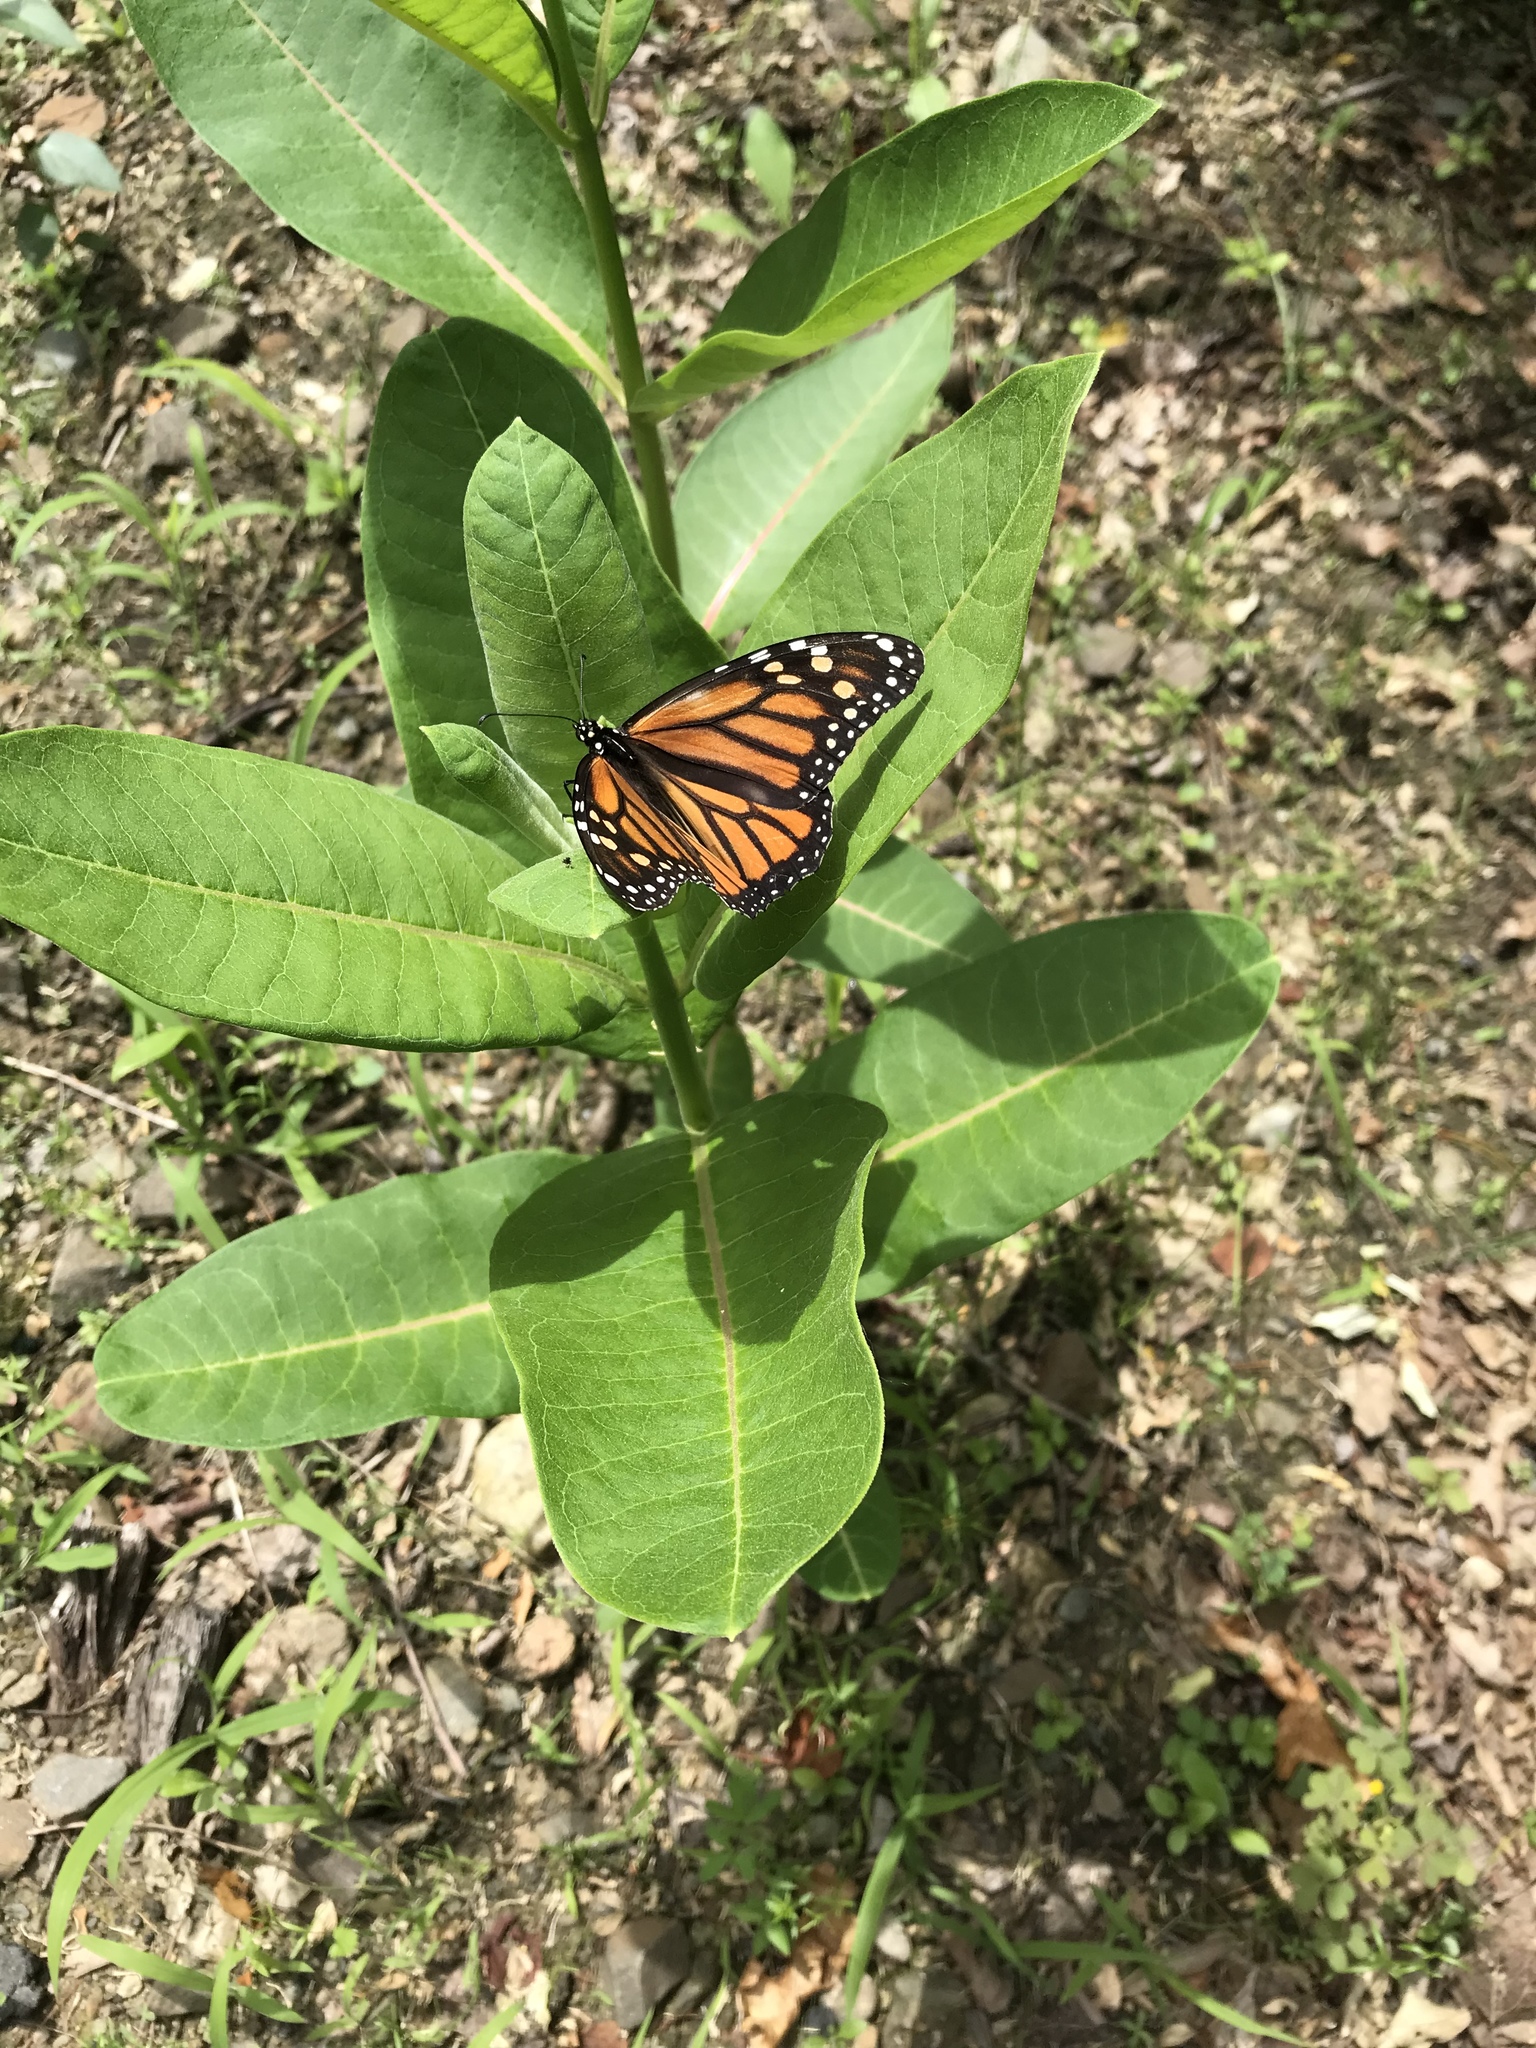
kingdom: Animalia
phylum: Arthropoda
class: Insecta
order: Lepidoptera
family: Nymphalidae
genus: Danaus
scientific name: Danaus plexippus
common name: Monarch
